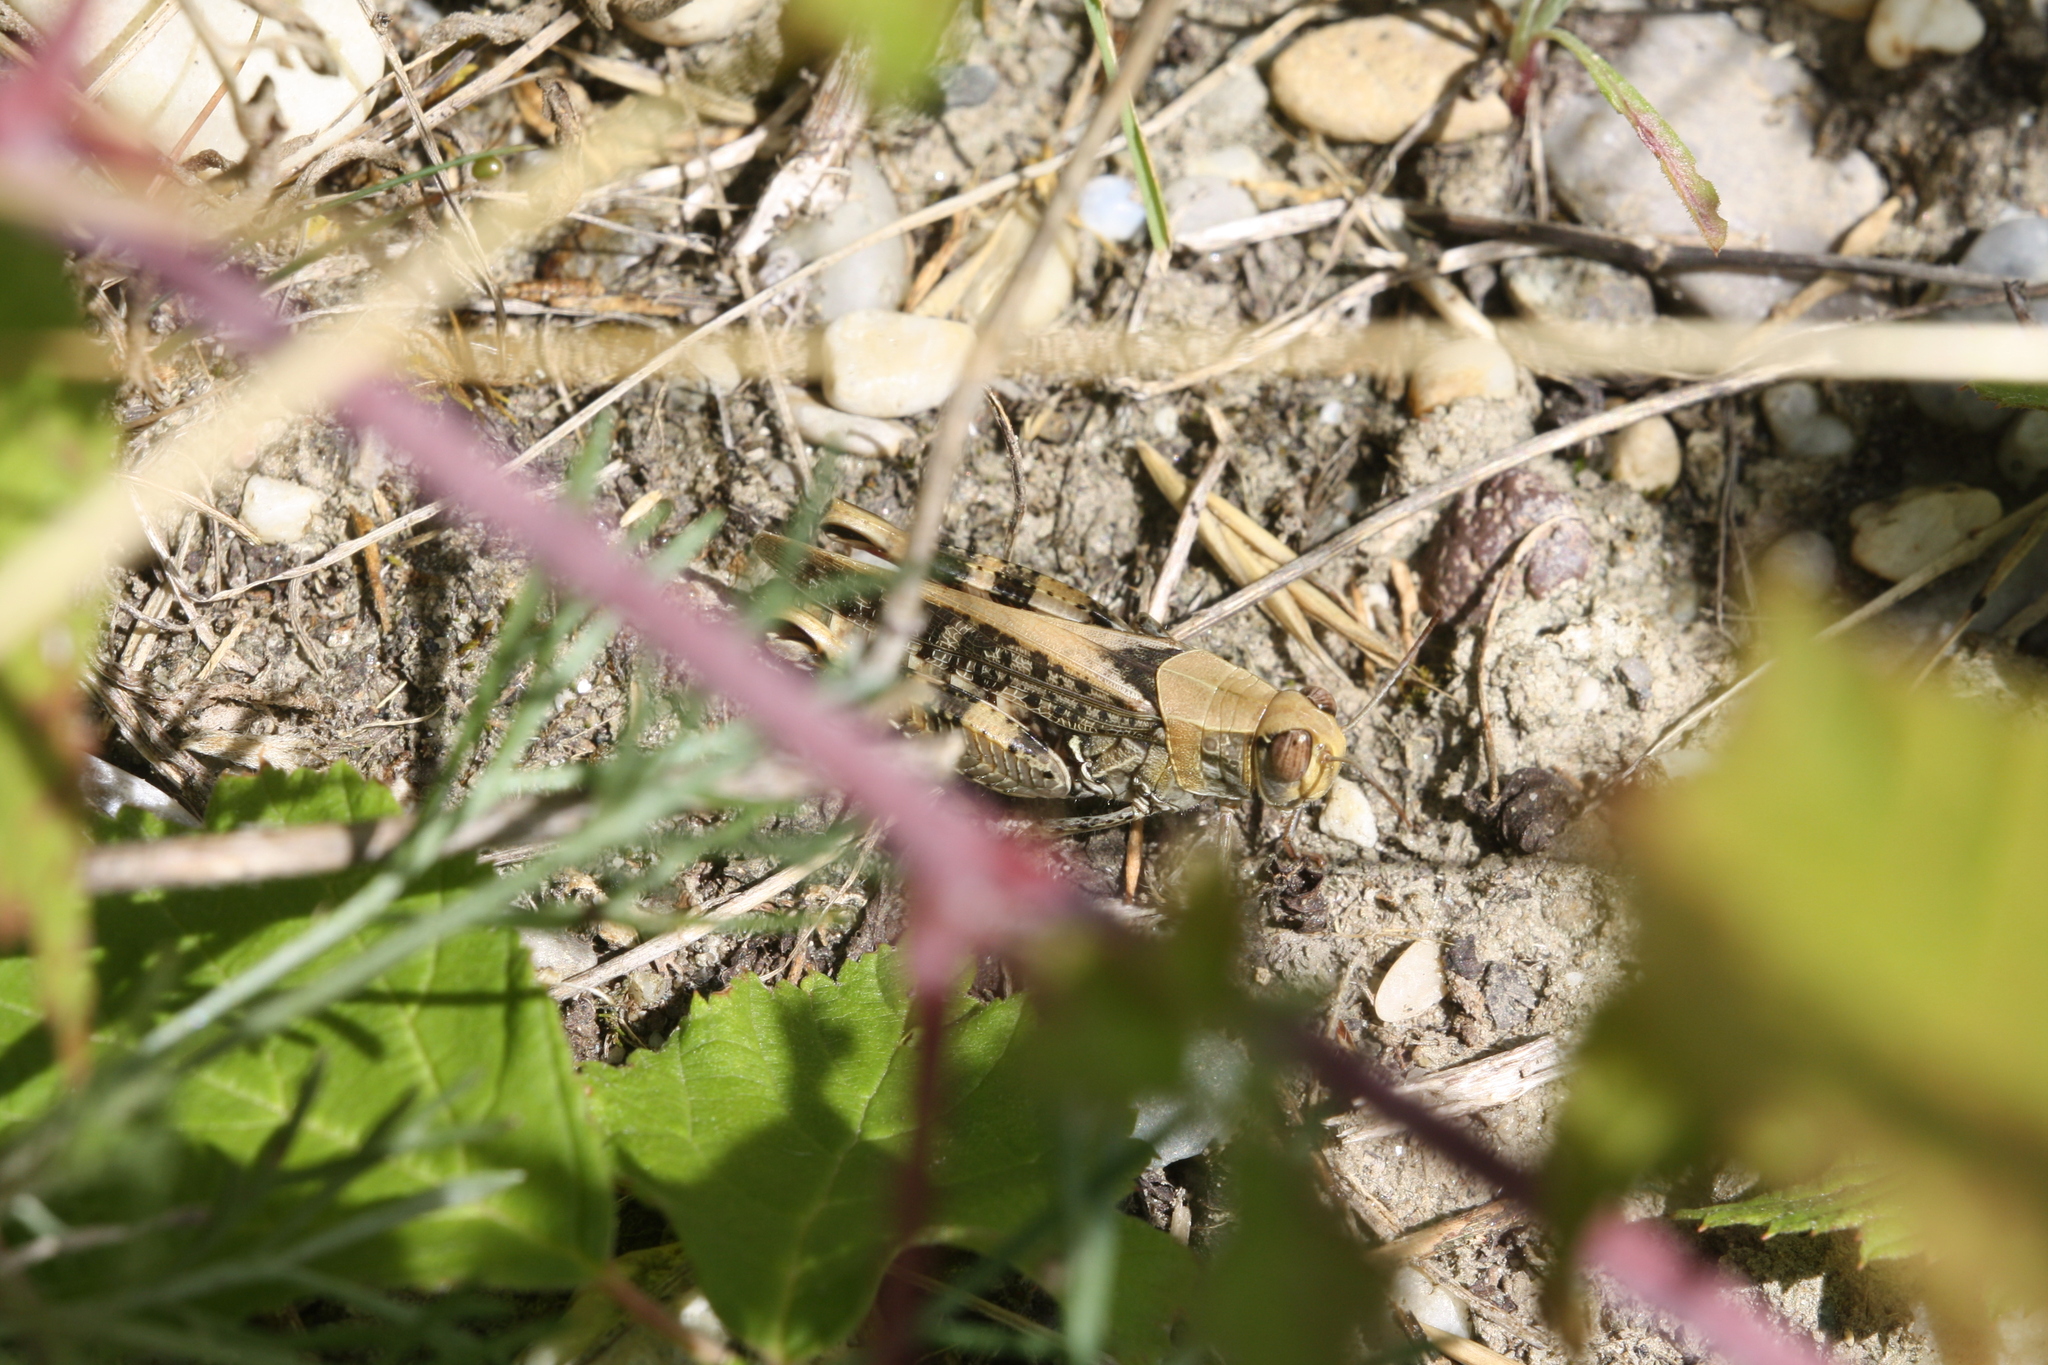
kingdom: Animalia
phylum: Arthropoda
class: Insecta
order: Orthoptera
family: Acrididae
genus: Calliptamus
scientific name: Calliptamus italicus
